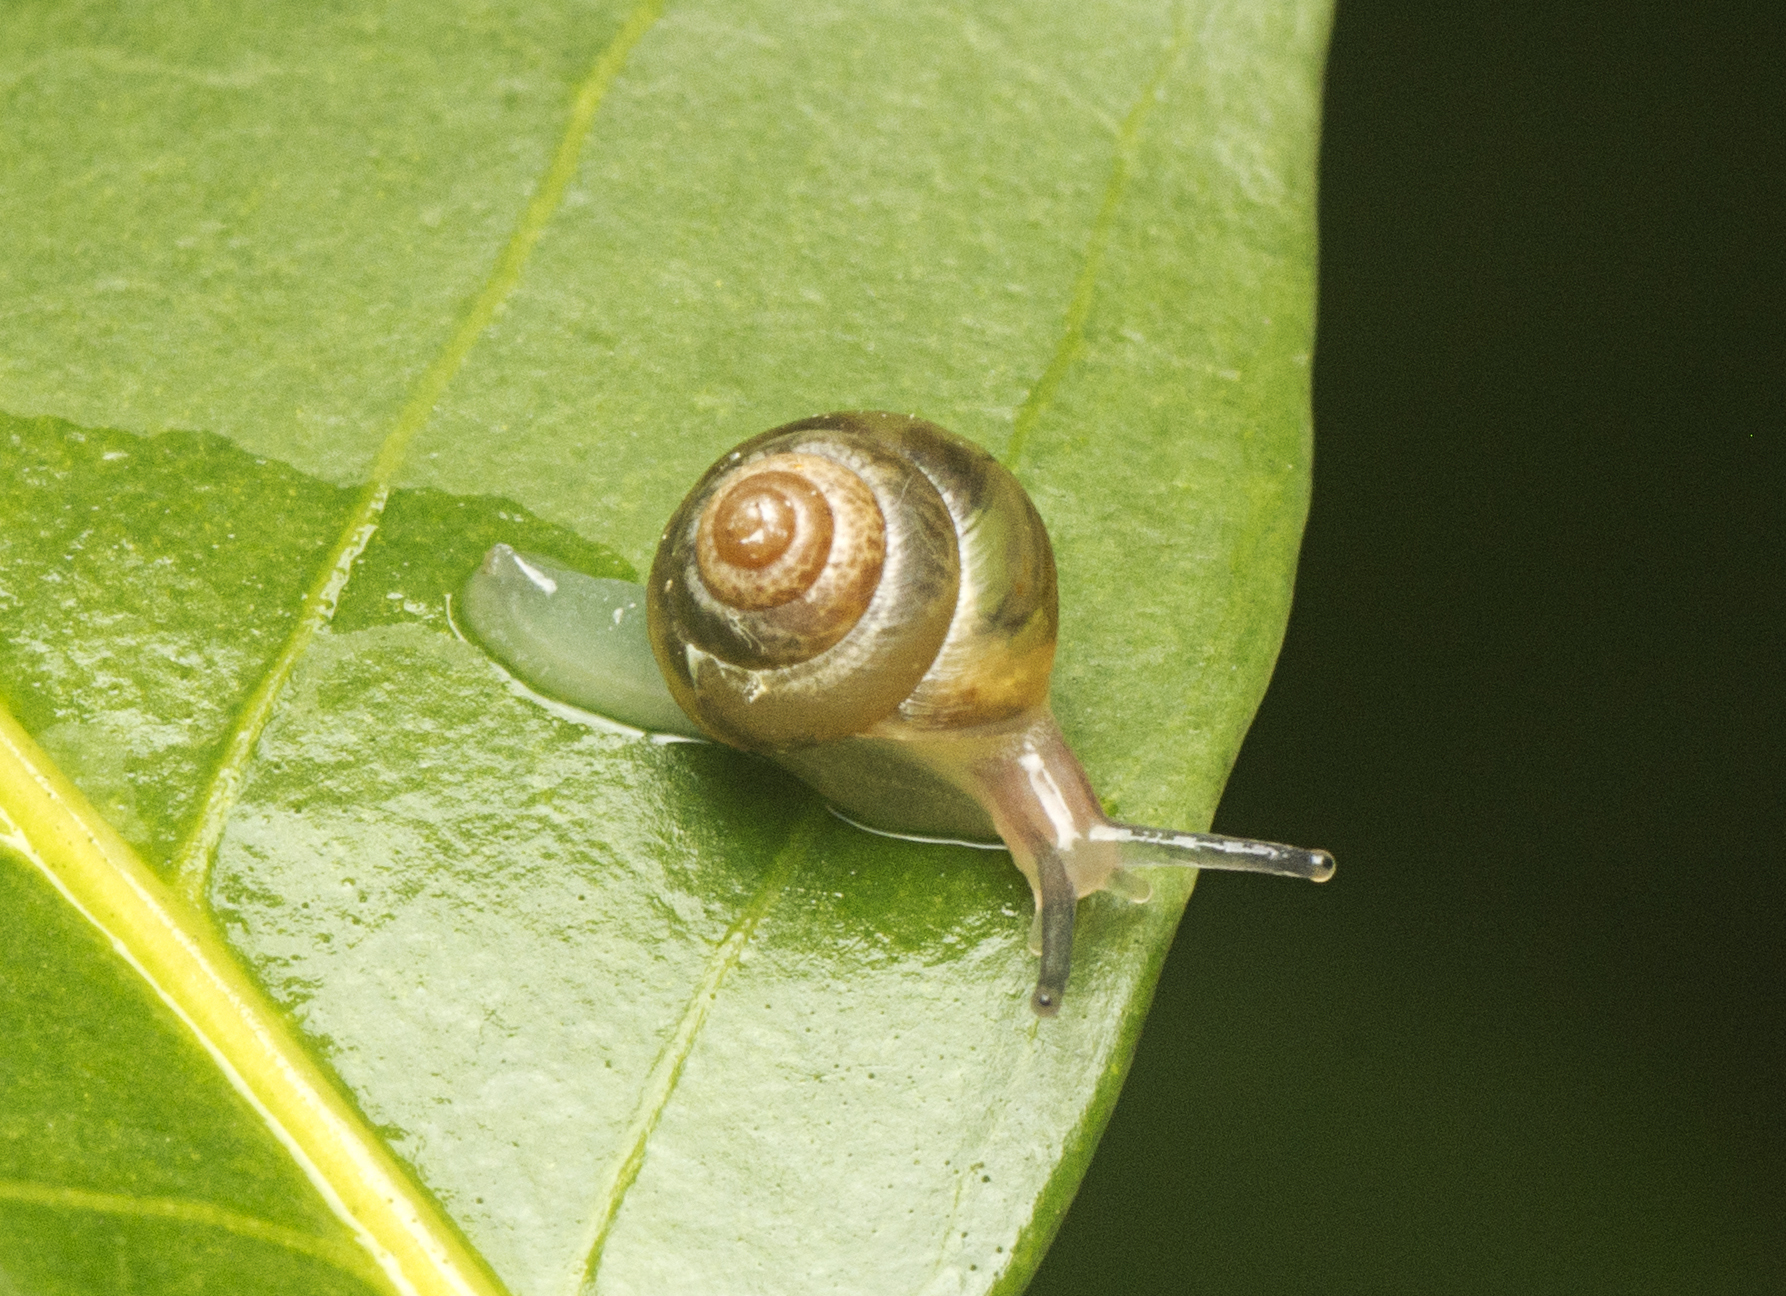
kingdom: Animalia
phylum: Mollusca
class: Gastropoda
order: Stylommatophora
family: Euconulidae
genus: Coneuplecta
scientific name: Coneuplecta calculosa
